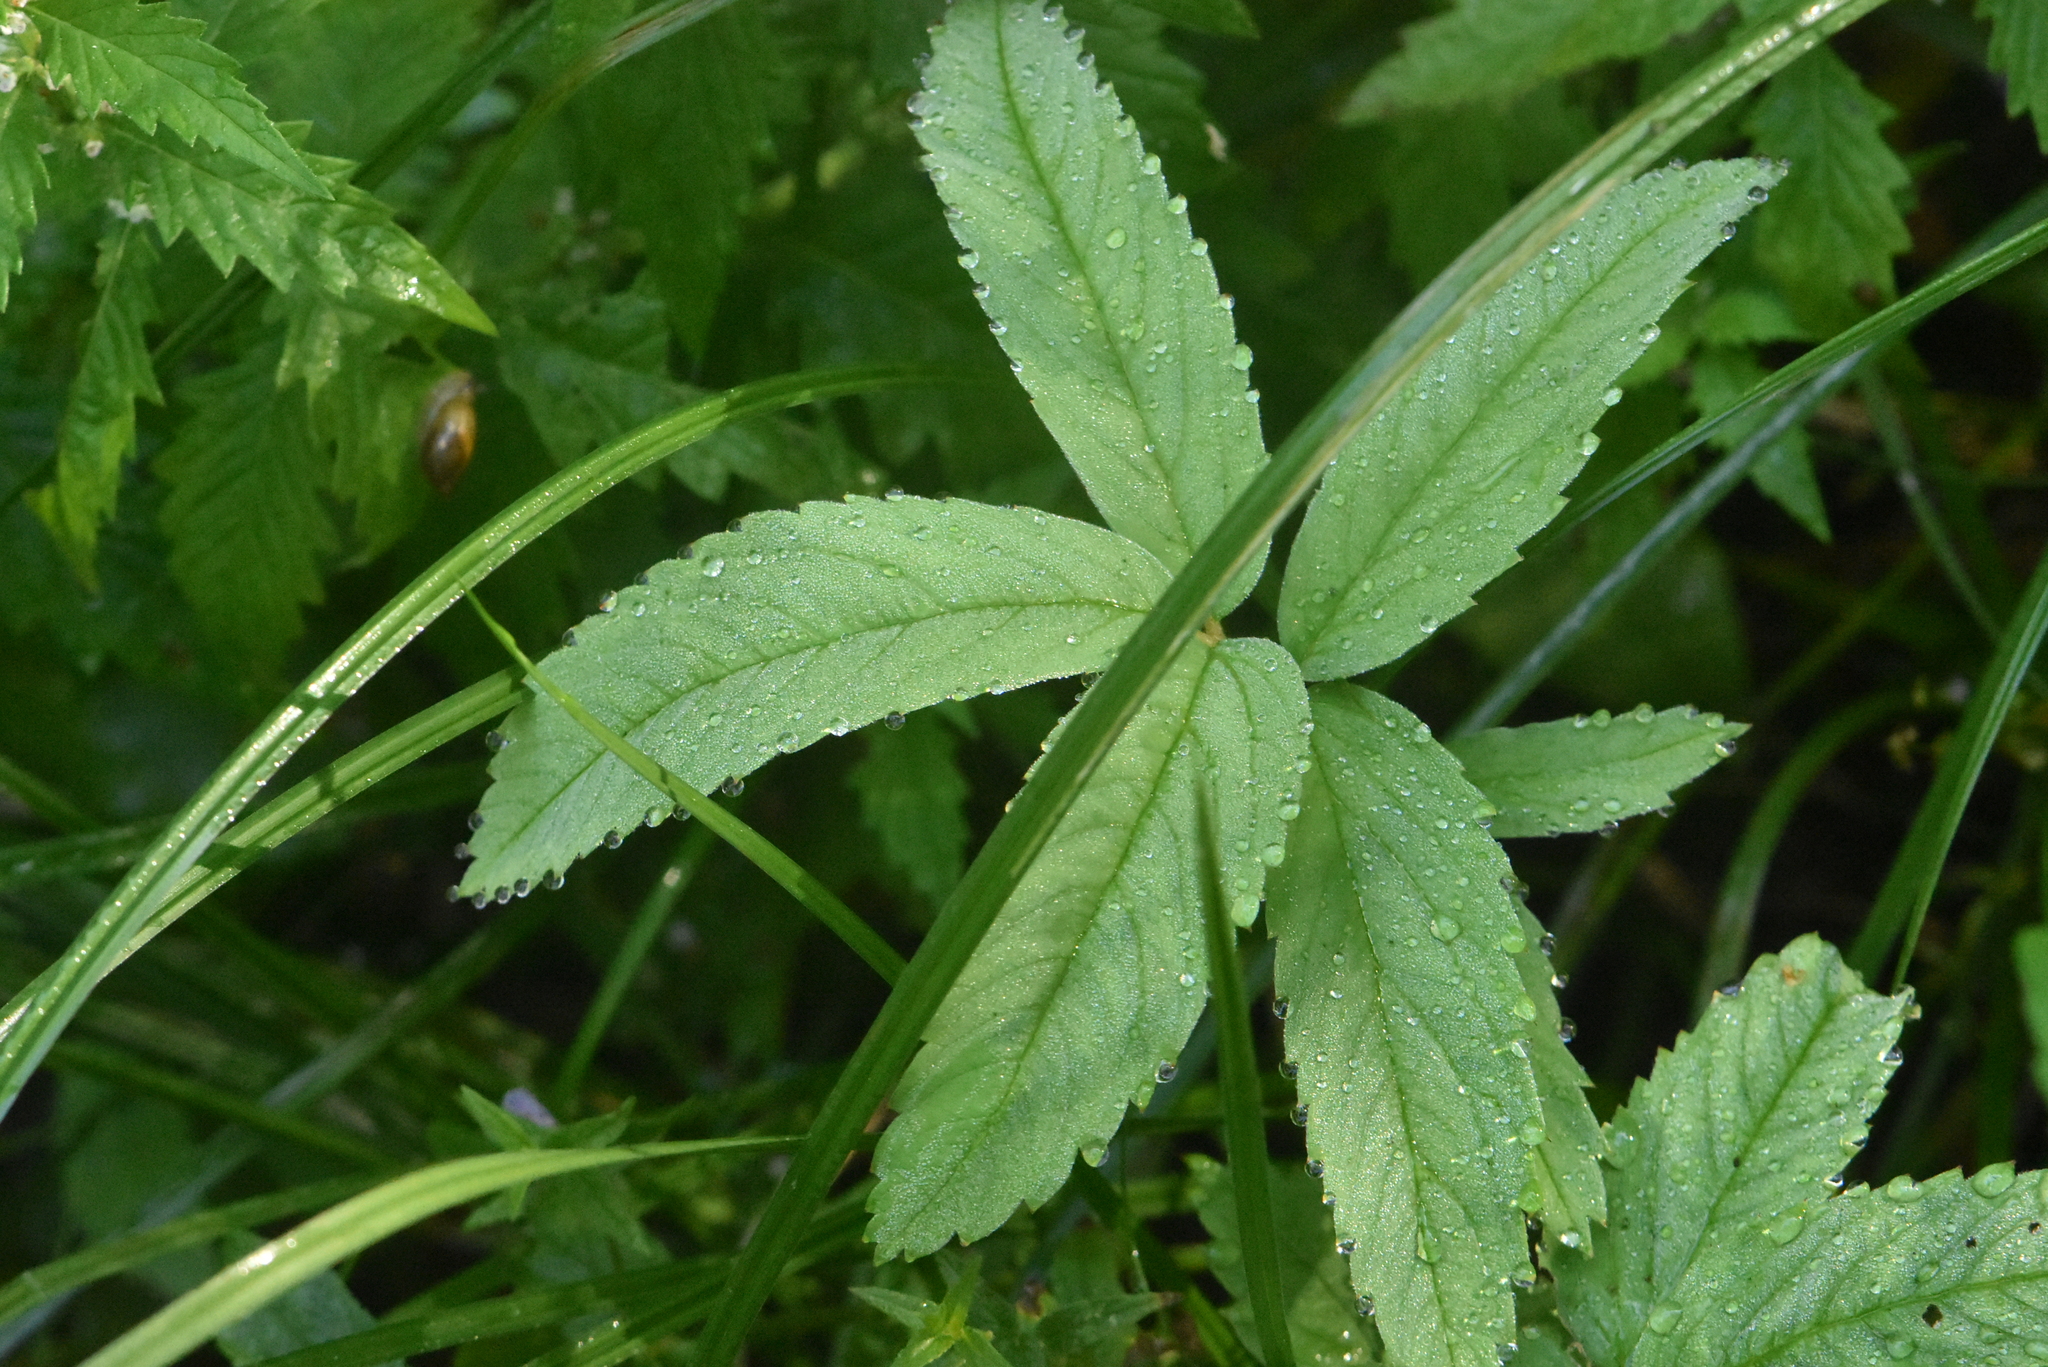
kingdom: Plantae
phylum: Tracheophyta
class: Magnoliopsida
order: Rosales
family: Rosaceae
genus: Comarum
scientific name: Comarum palustre
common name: Marsh cinquefoil
